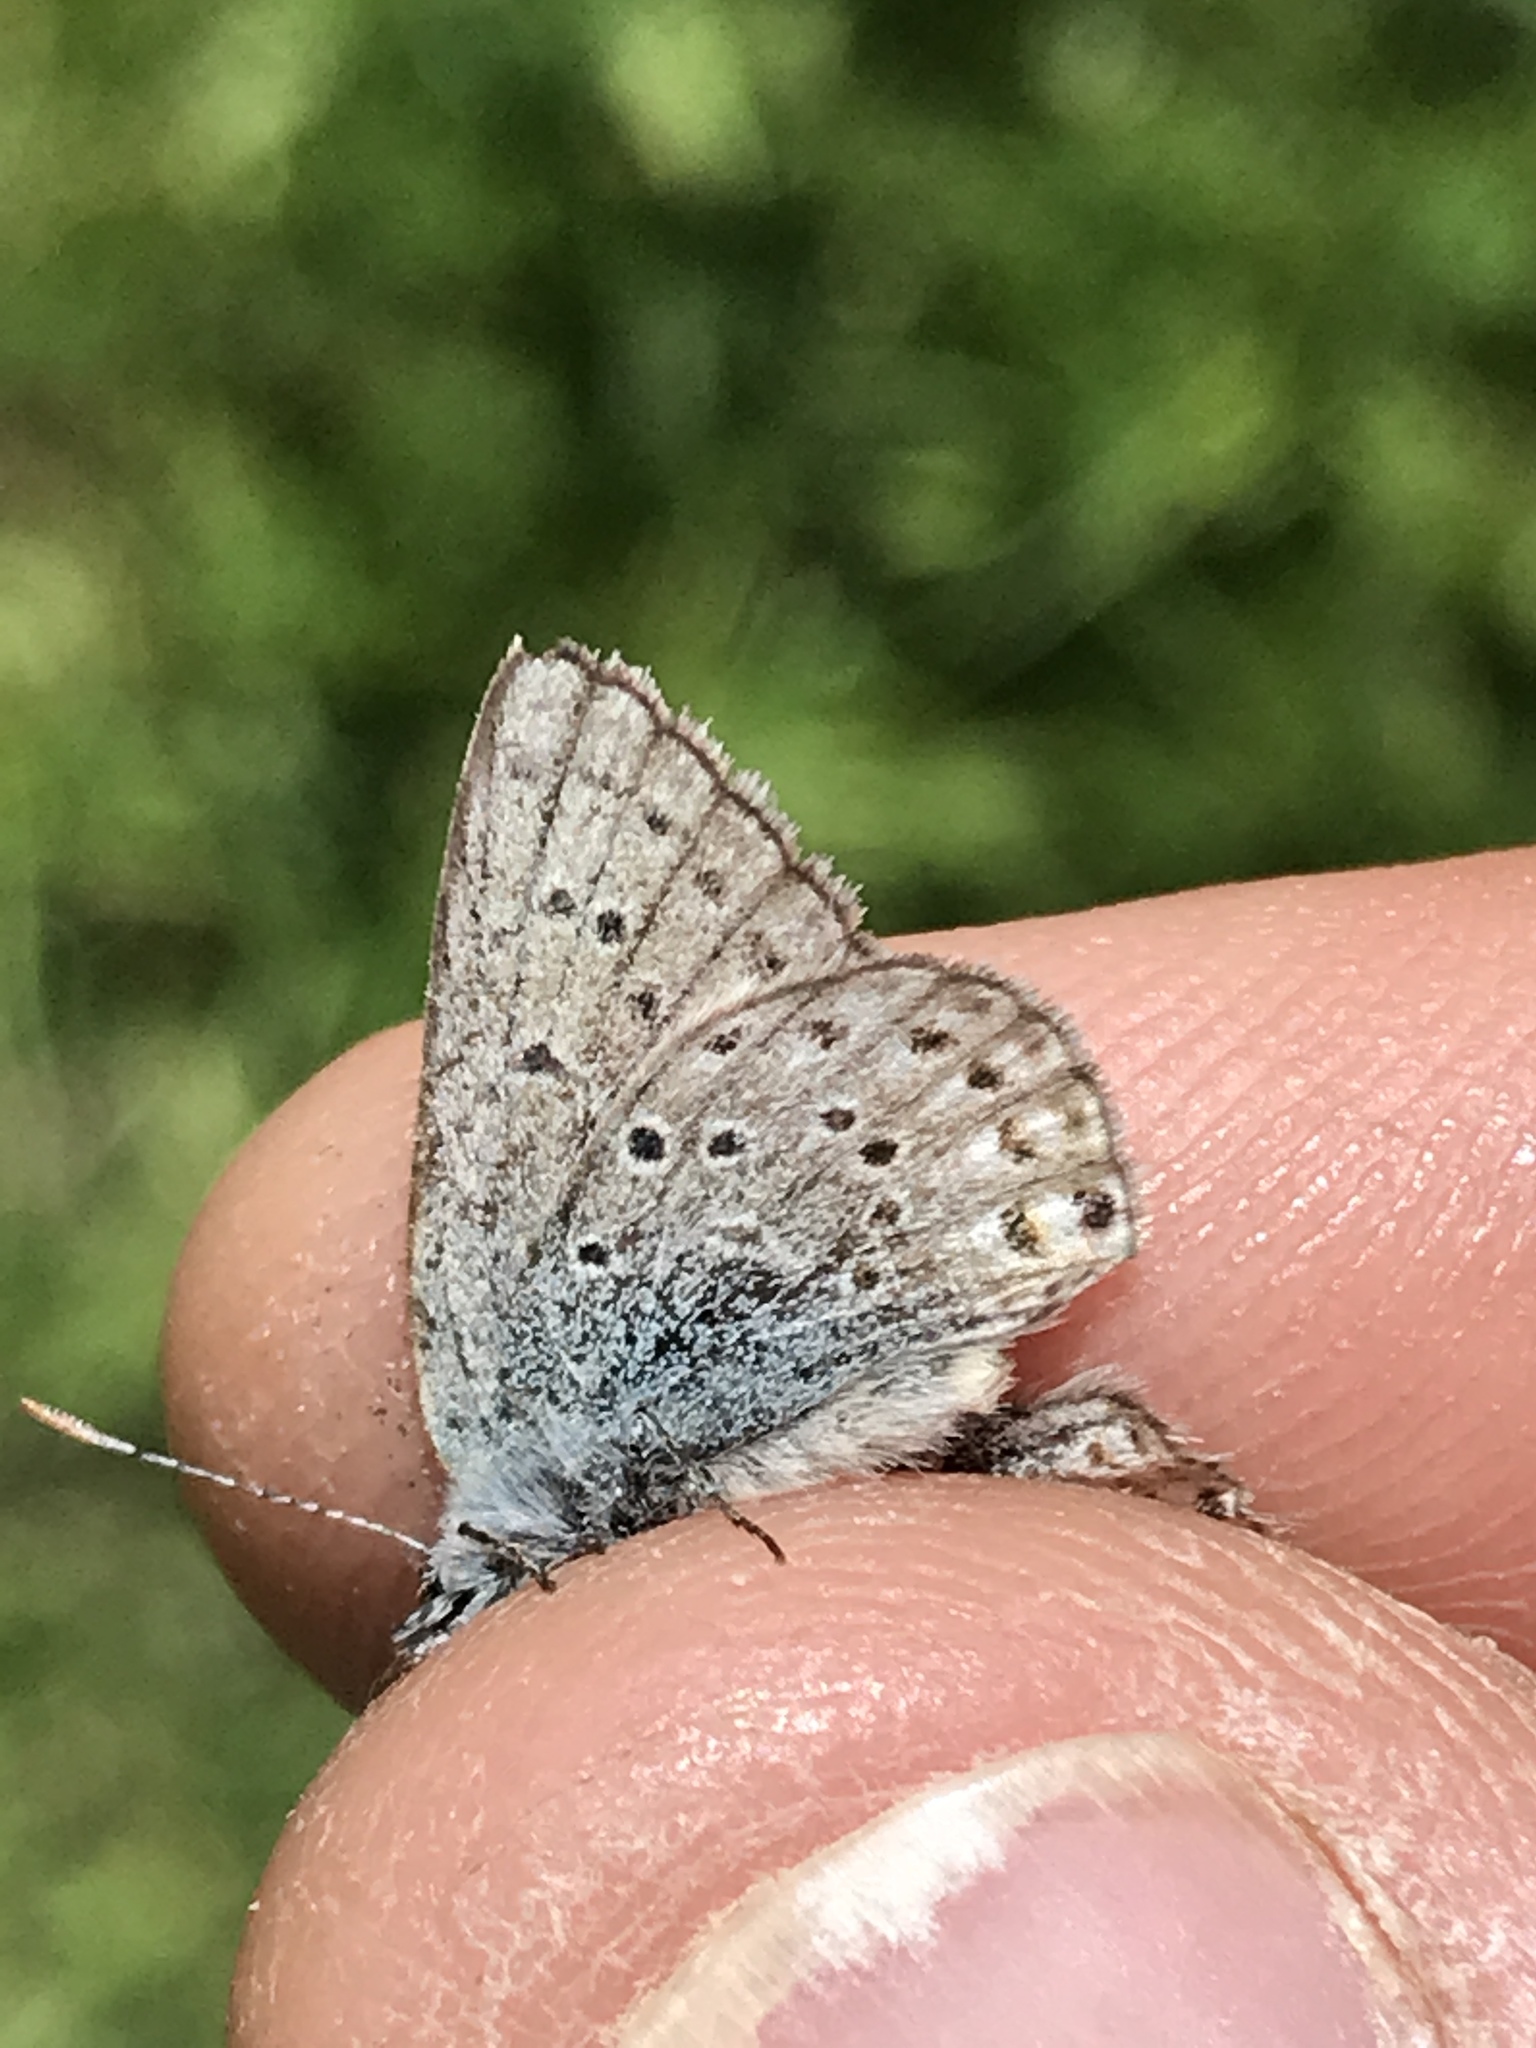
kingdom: Animalia
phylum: Arthropoda
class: Insecta
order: Lepidoptera
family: Lycaenidae
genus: Icaricia
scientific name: Icaricia saepiolus
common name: Greenish blue
